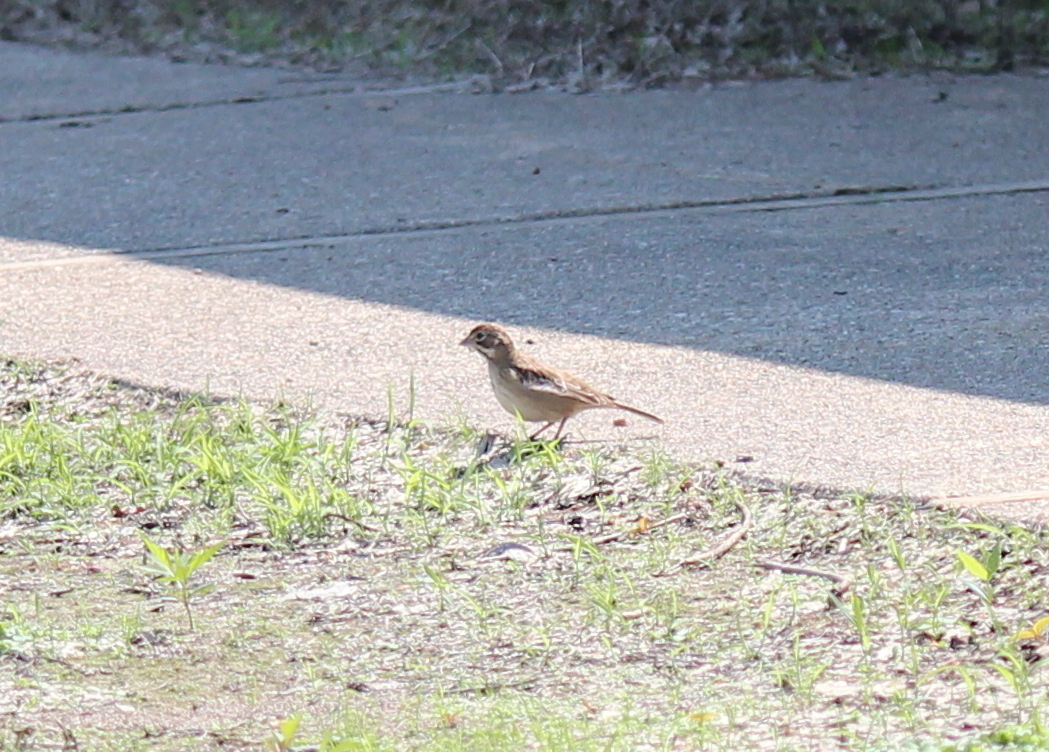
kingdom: Animalia
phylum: Chordata
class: Aves
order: Passeriformes
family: Passerellidae
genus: Chondestes
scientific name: Chondestes grammacus
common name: Lark sparrow
